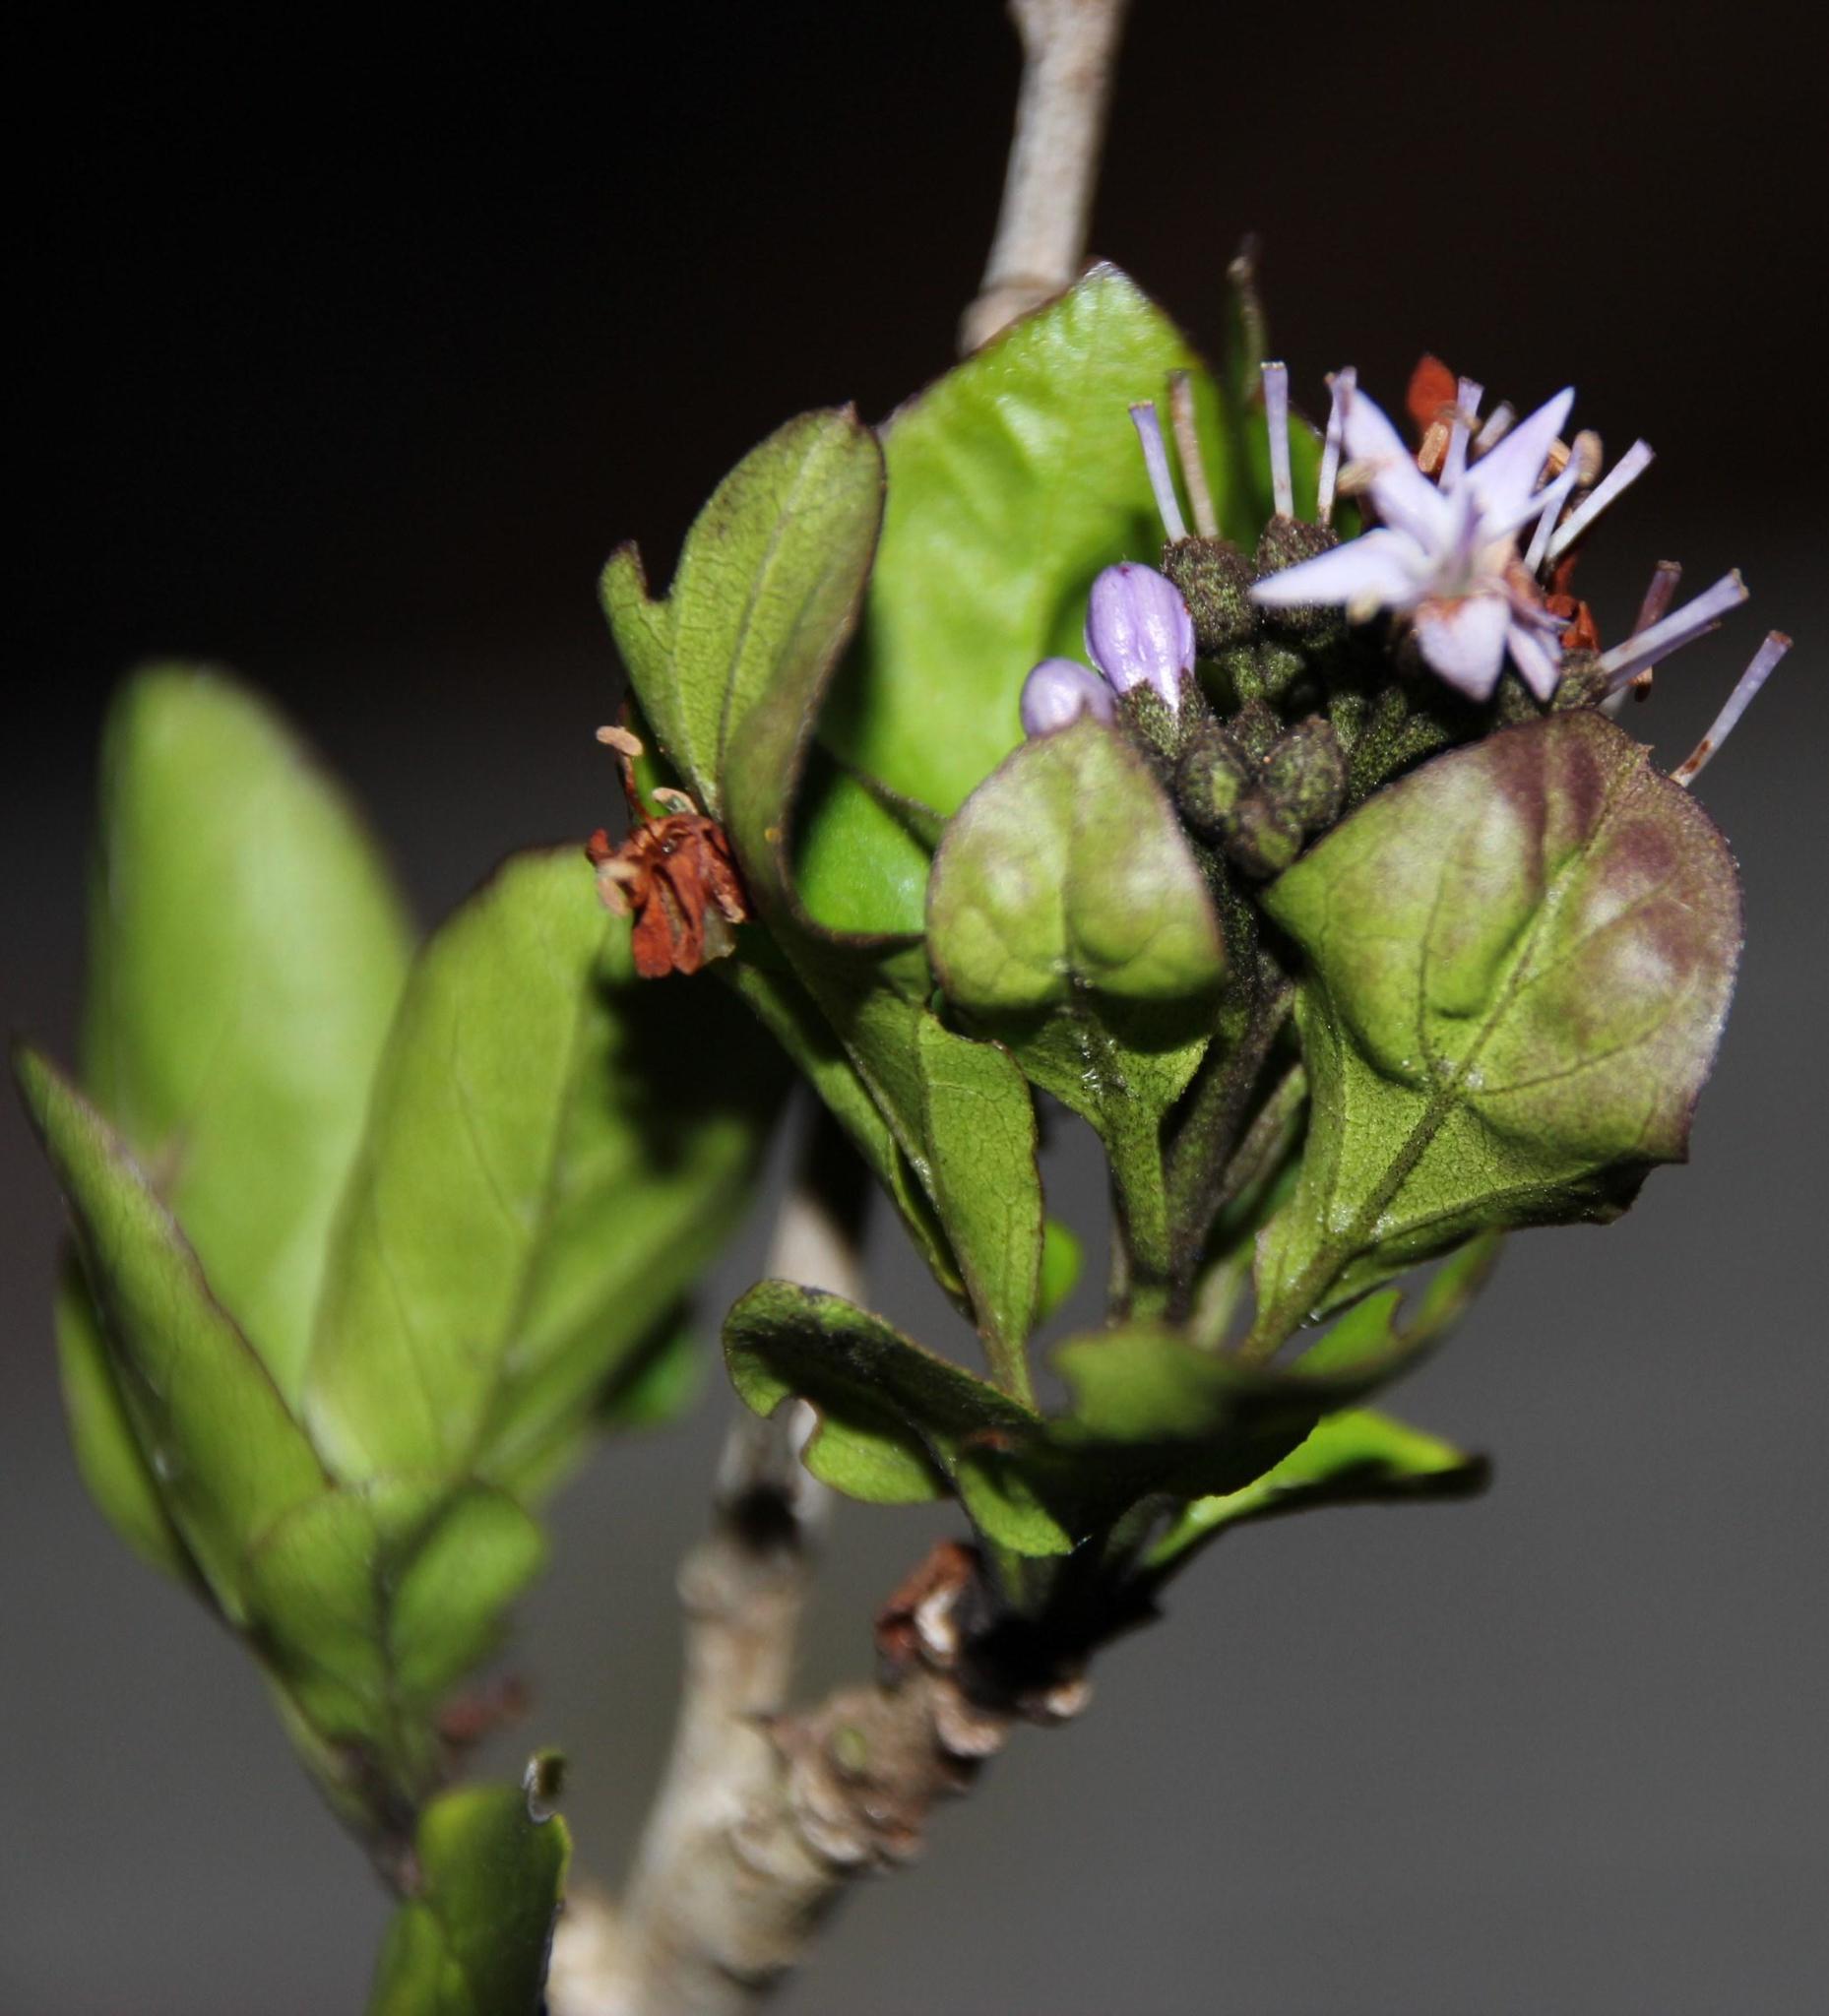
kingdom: Plantae
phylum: Tracheophyta
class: Magnoliopsida
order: Boraginales
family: Ehretiaceae
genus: Ehretia
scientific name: Ehretia rigida
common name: Cape lilac
